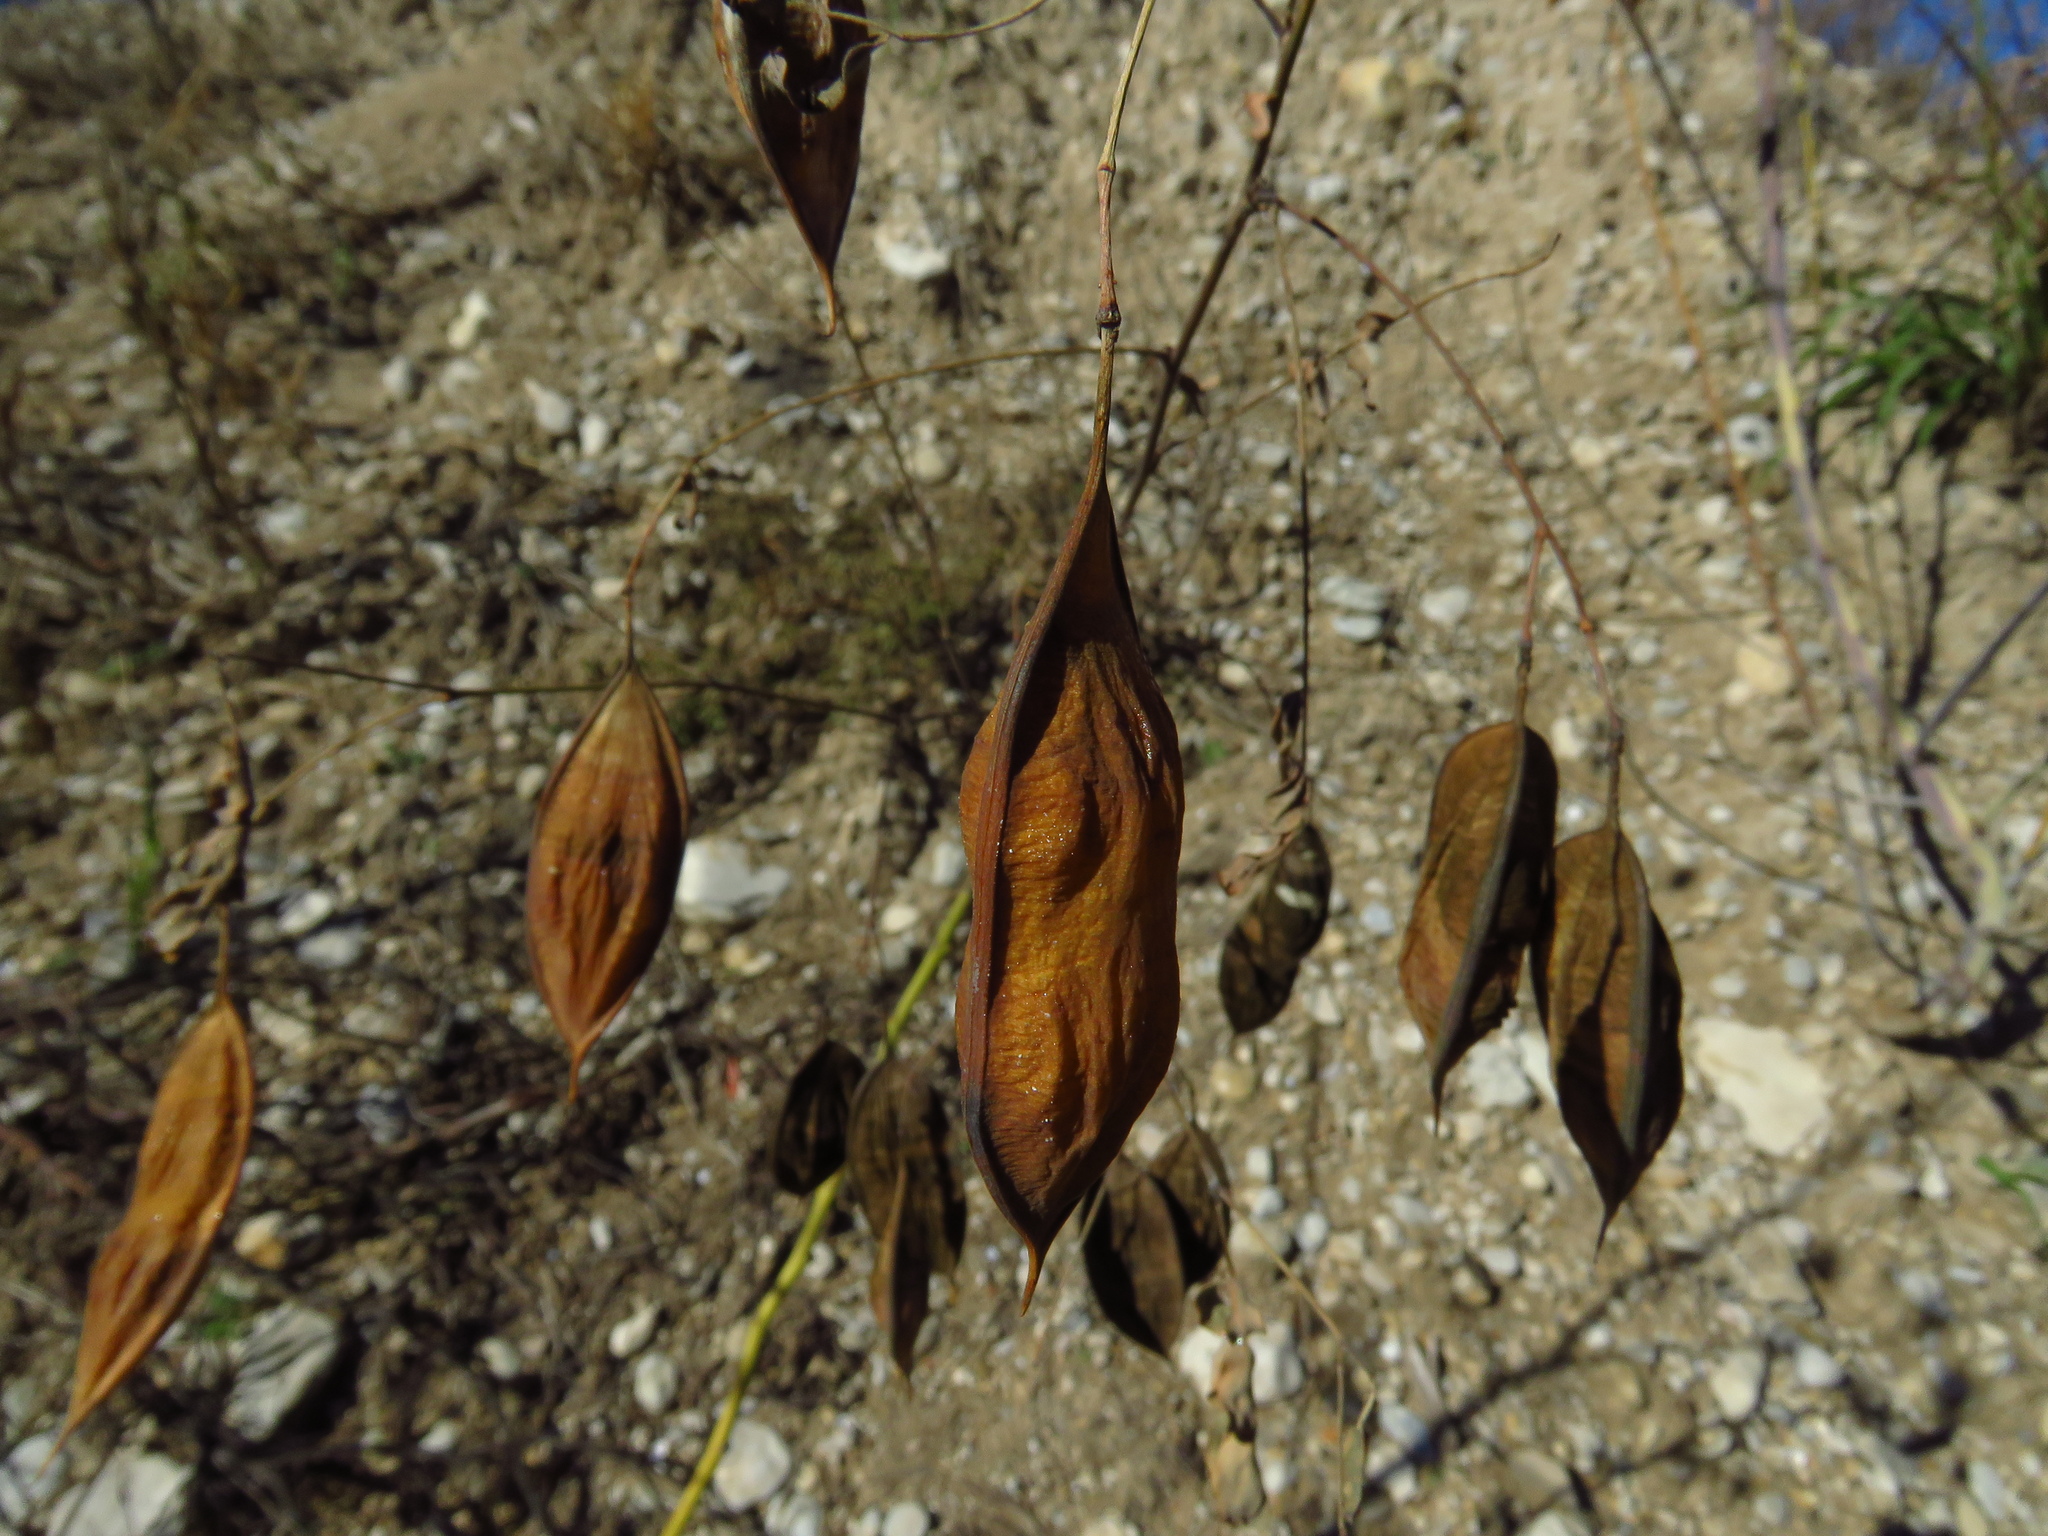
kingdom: Plantae
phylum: Tracheophyta
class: Magnoliopsida
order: Fabales
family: Fabaceae
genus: Sesbania
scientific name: Sesbania vesicaria
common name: Bagpod
